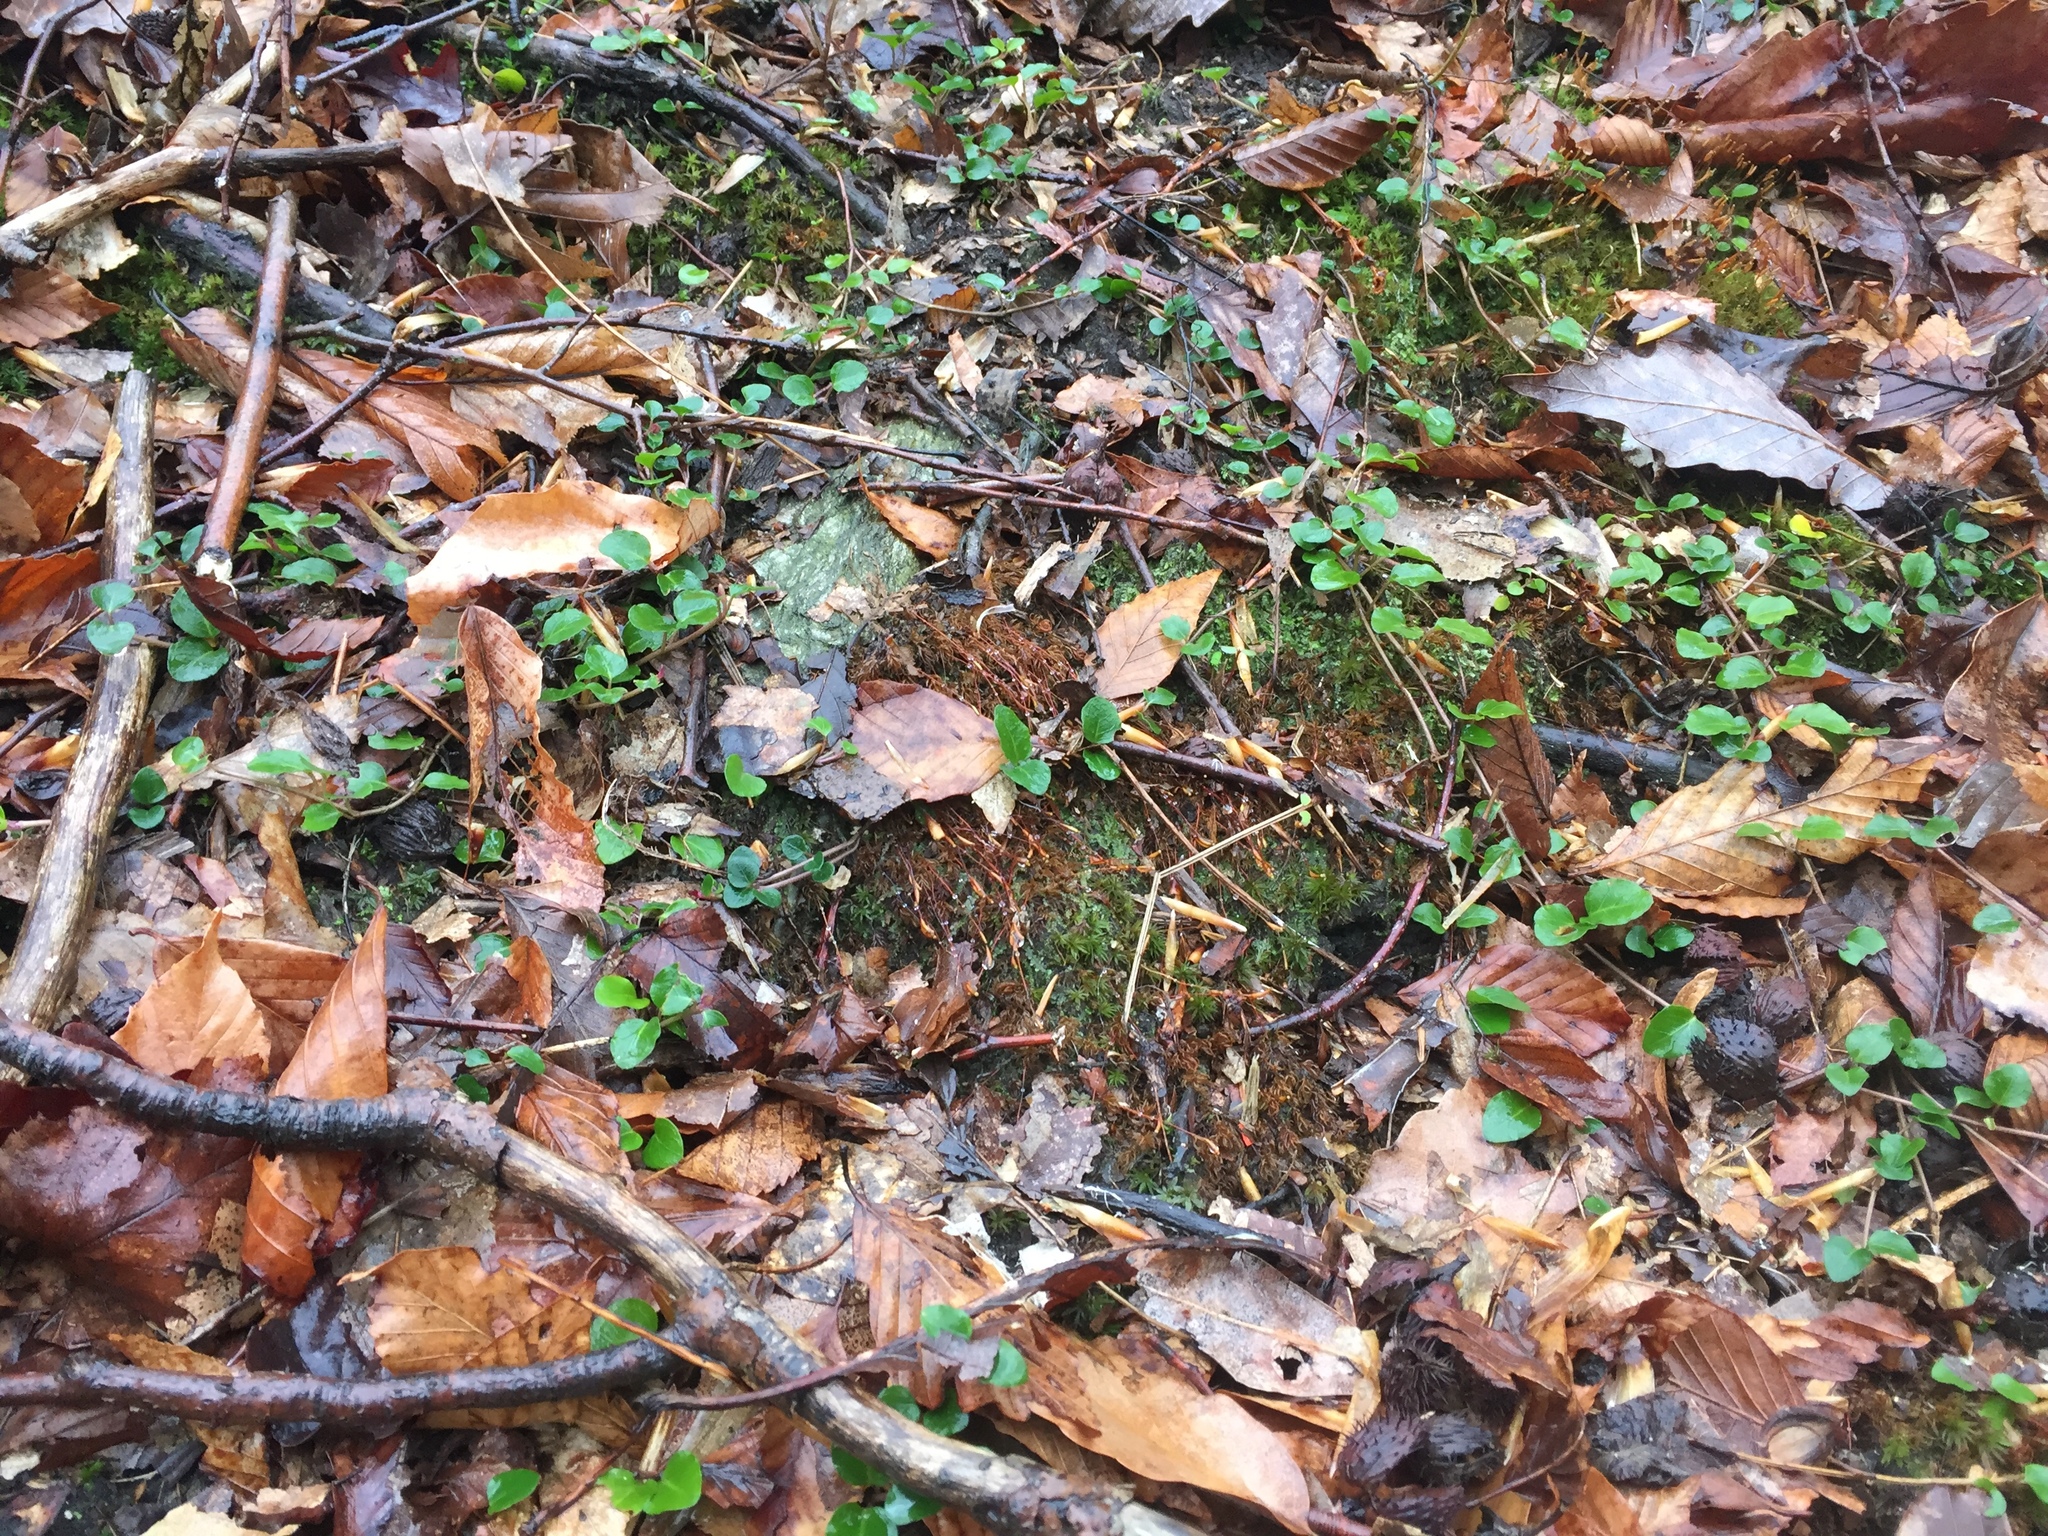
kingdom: Plantae
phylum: Tracheophyta
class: Magnoliopsida
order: Gentianales
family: Rubiaceae
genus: Mitchella
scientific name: Mitchella repens
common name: Partridge-berry
